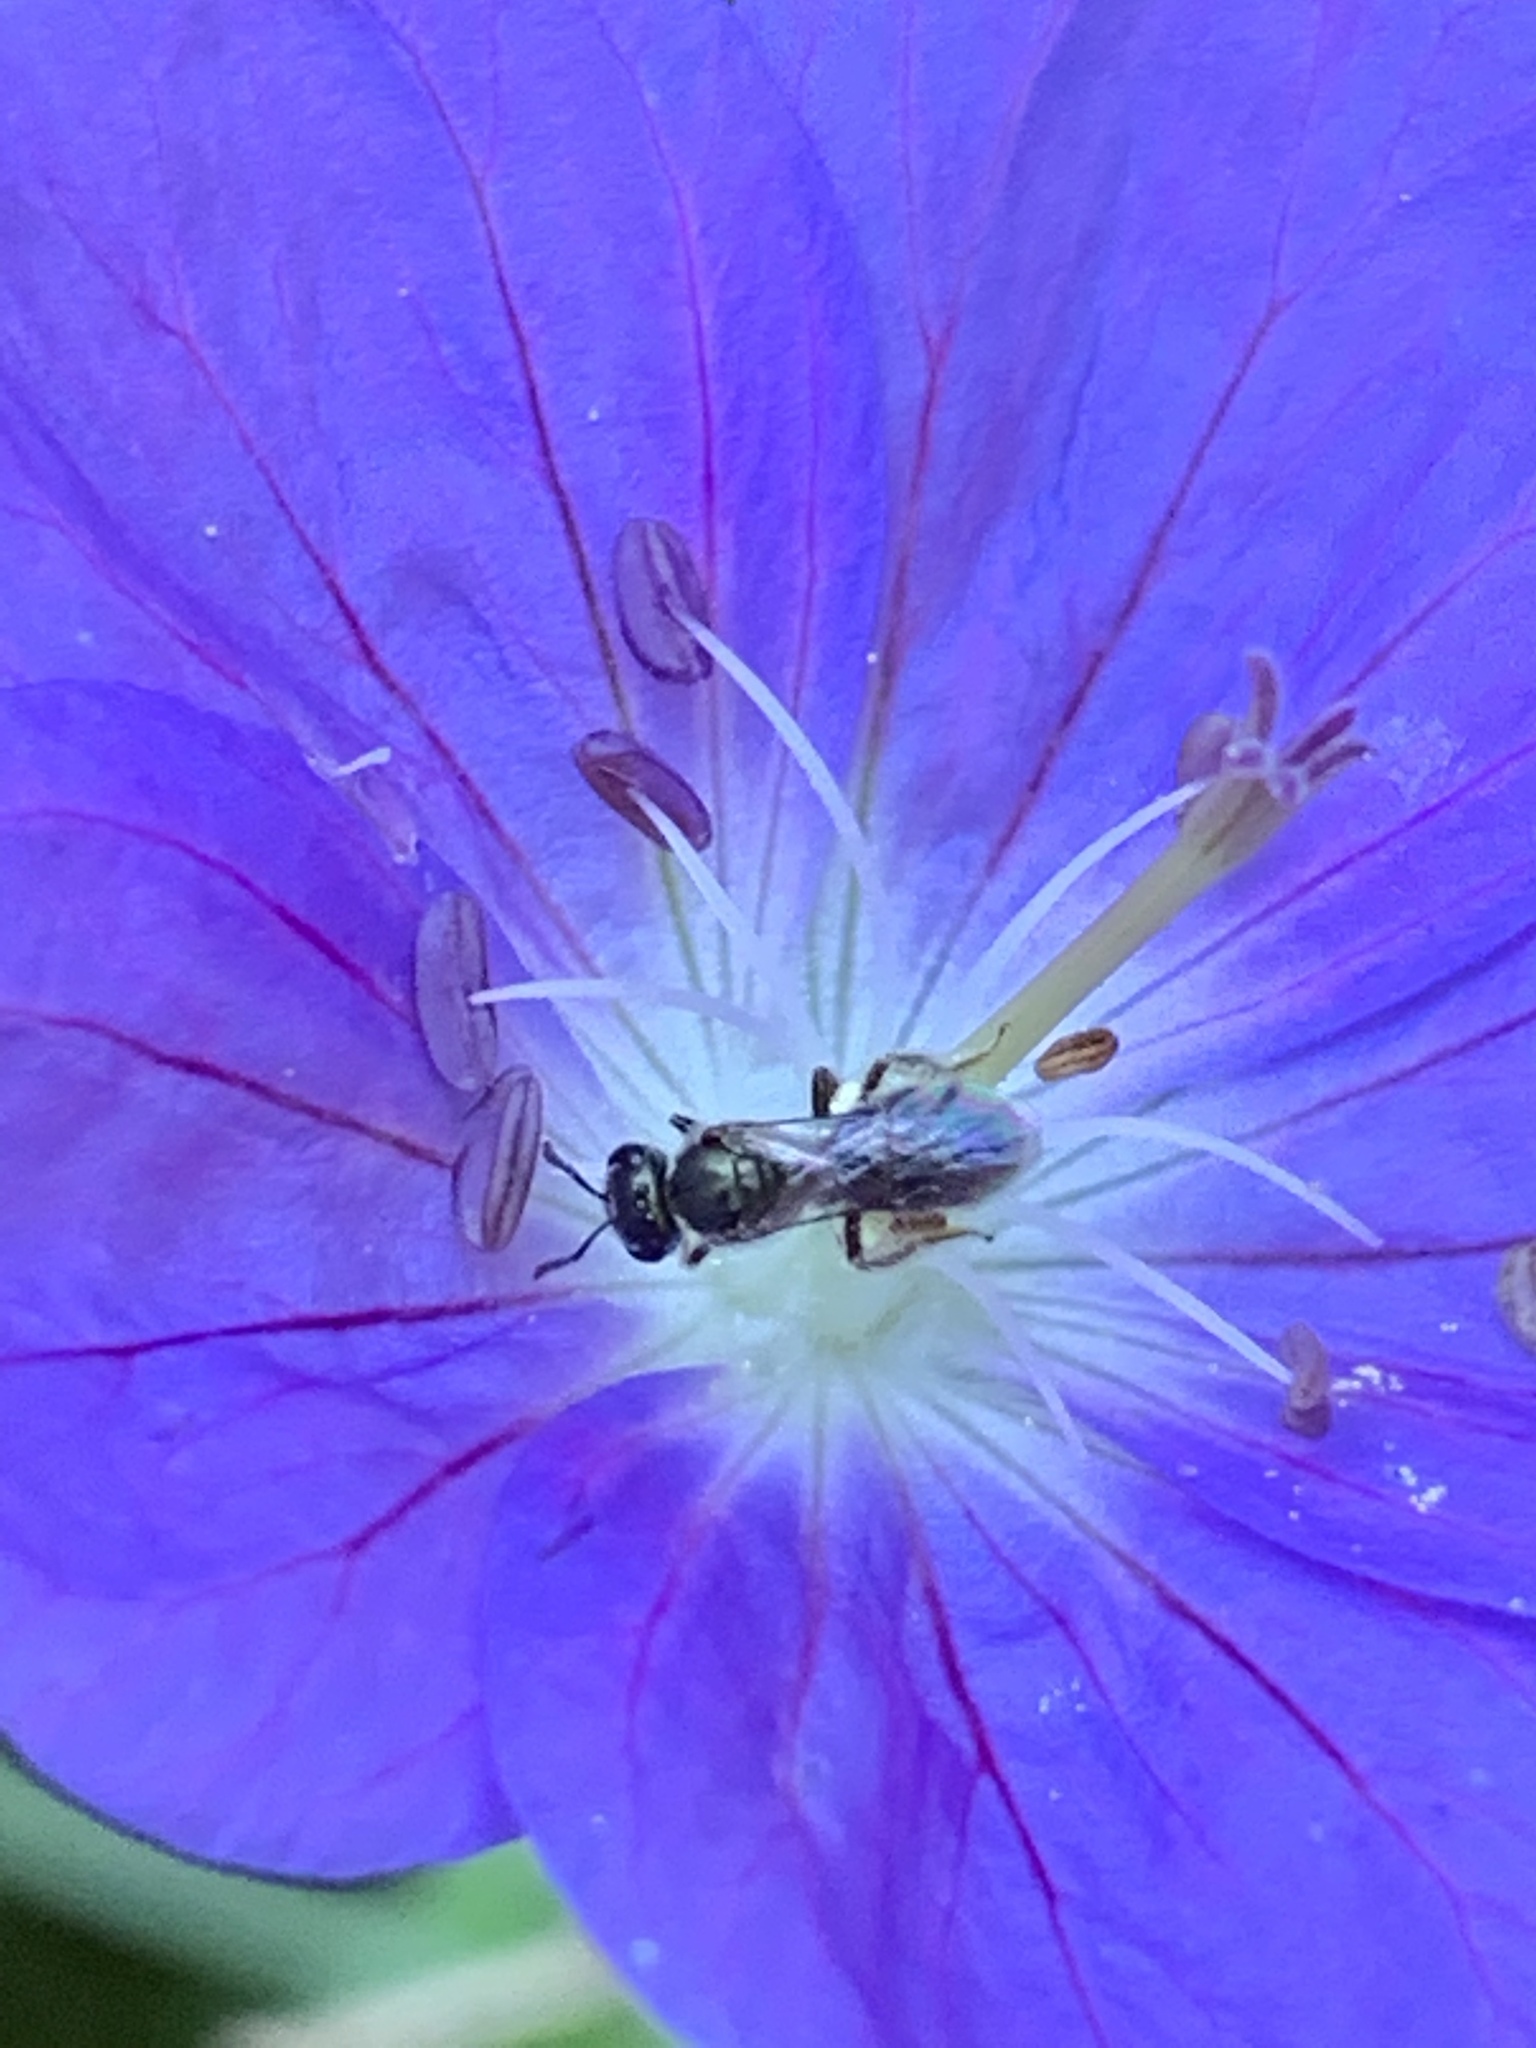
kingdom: Animalia
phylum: Arthropoda
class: Insecta
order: Hymenoptera
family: Halictidae
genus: Dialictus
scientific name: Dialictus
